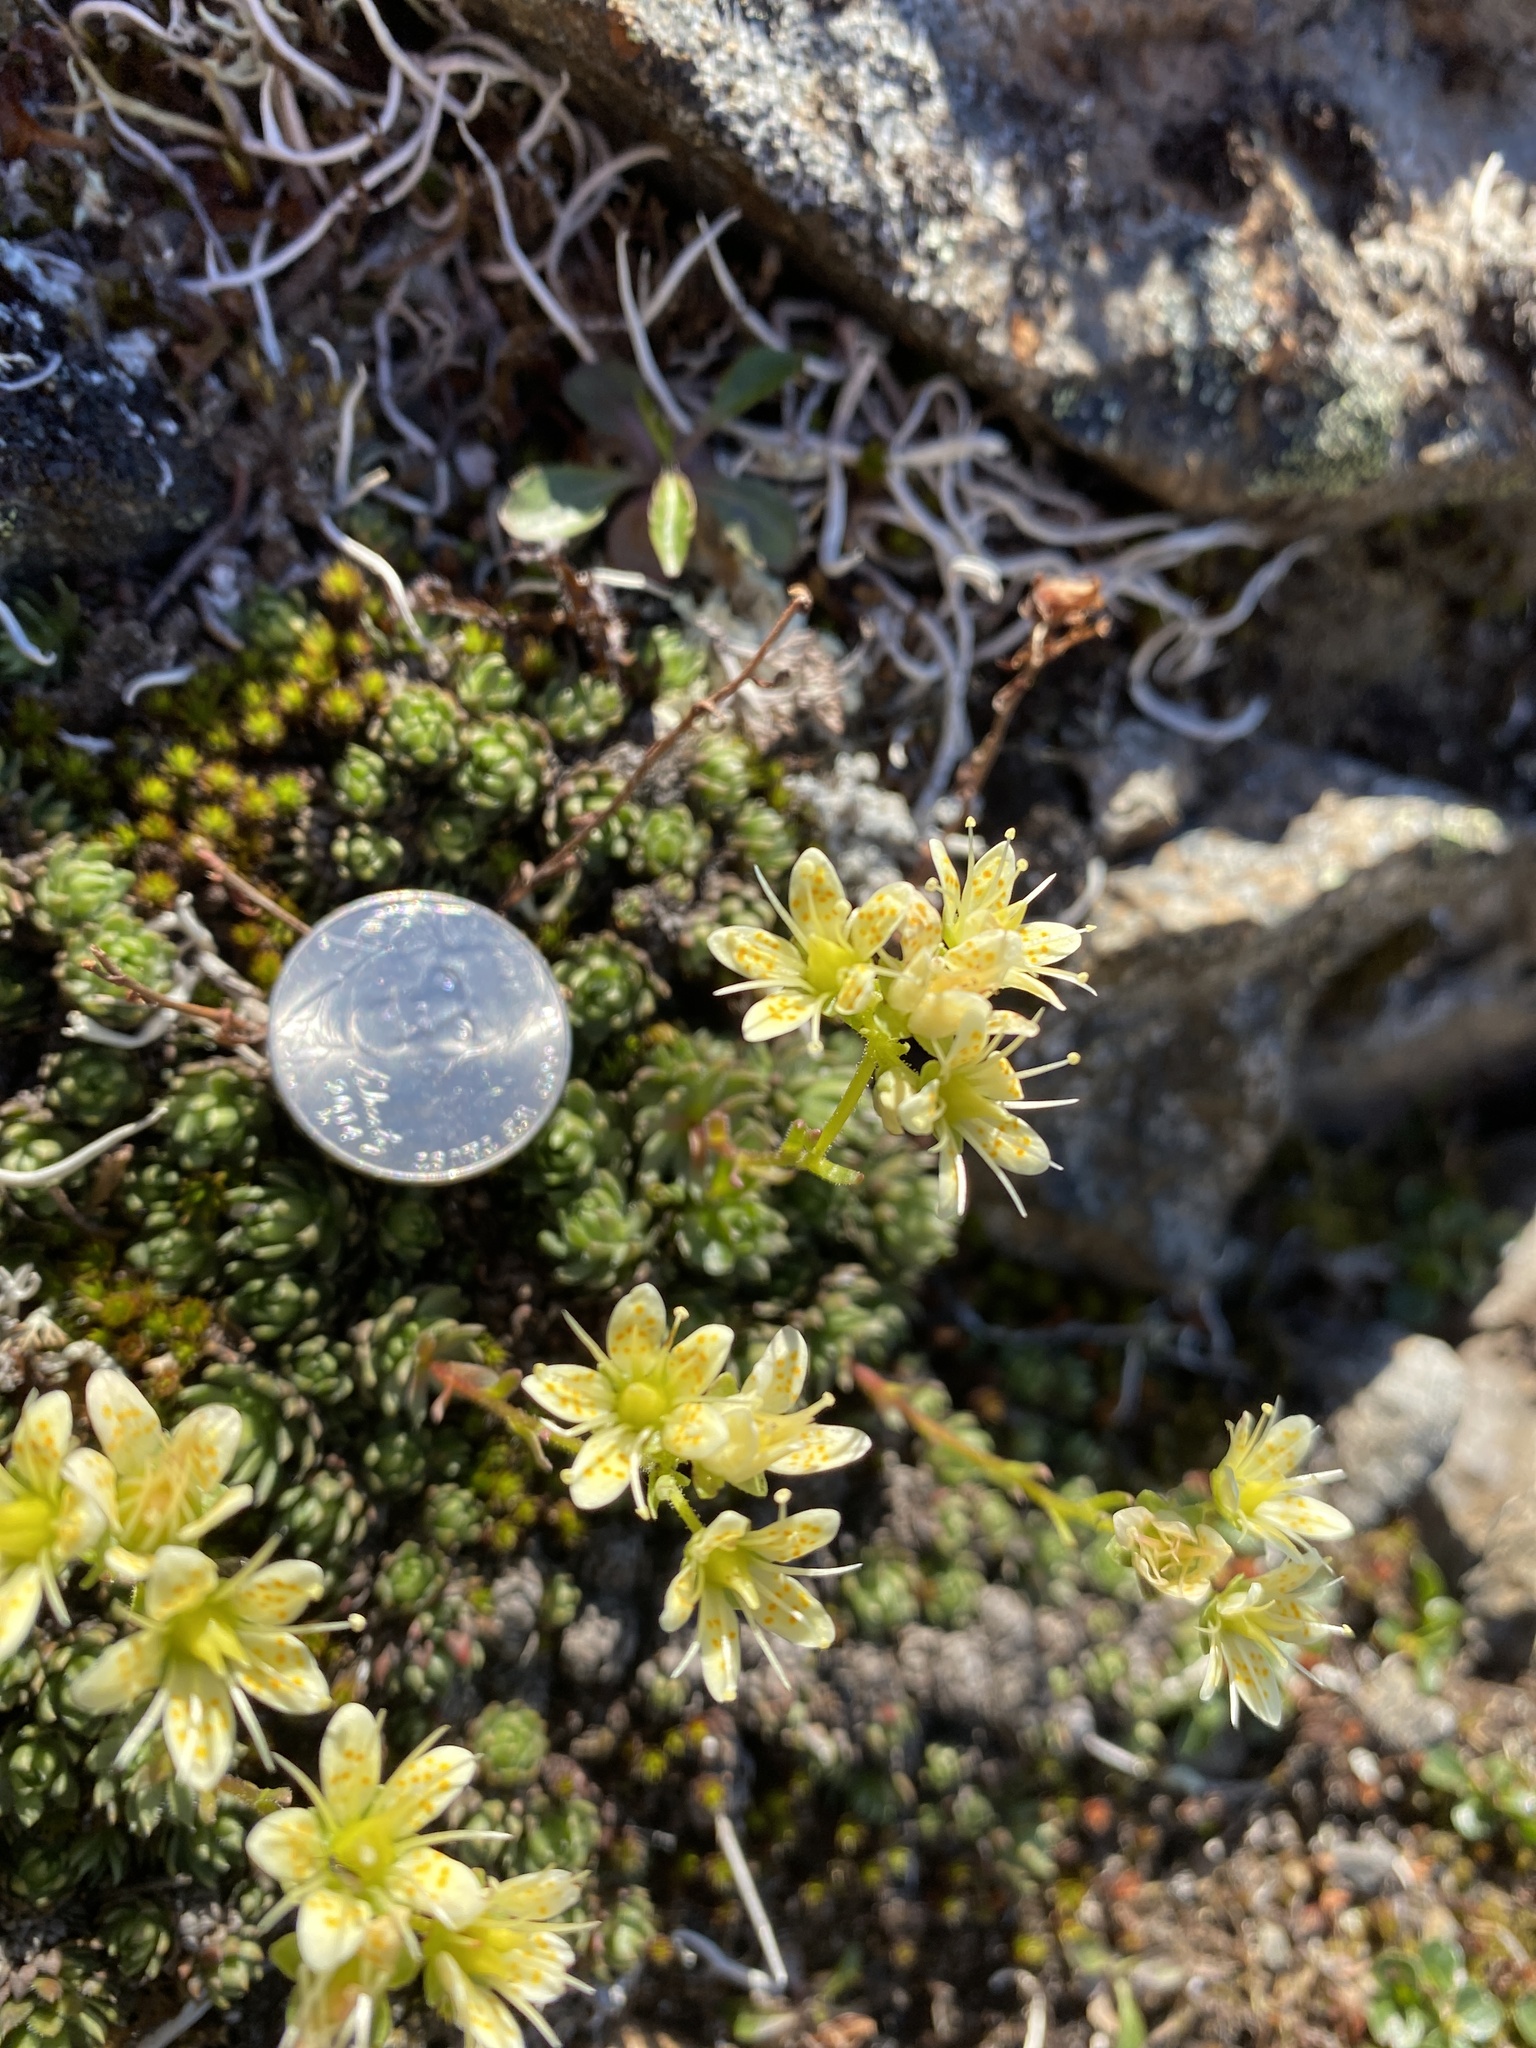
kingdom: Plantae
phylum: Tracheophyta
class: Magnoliopsida
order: Saxifragales
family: Saxifragaceae
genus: Saxifraga
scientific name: Saxifraga bronchialis
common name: Matted saxifrage
